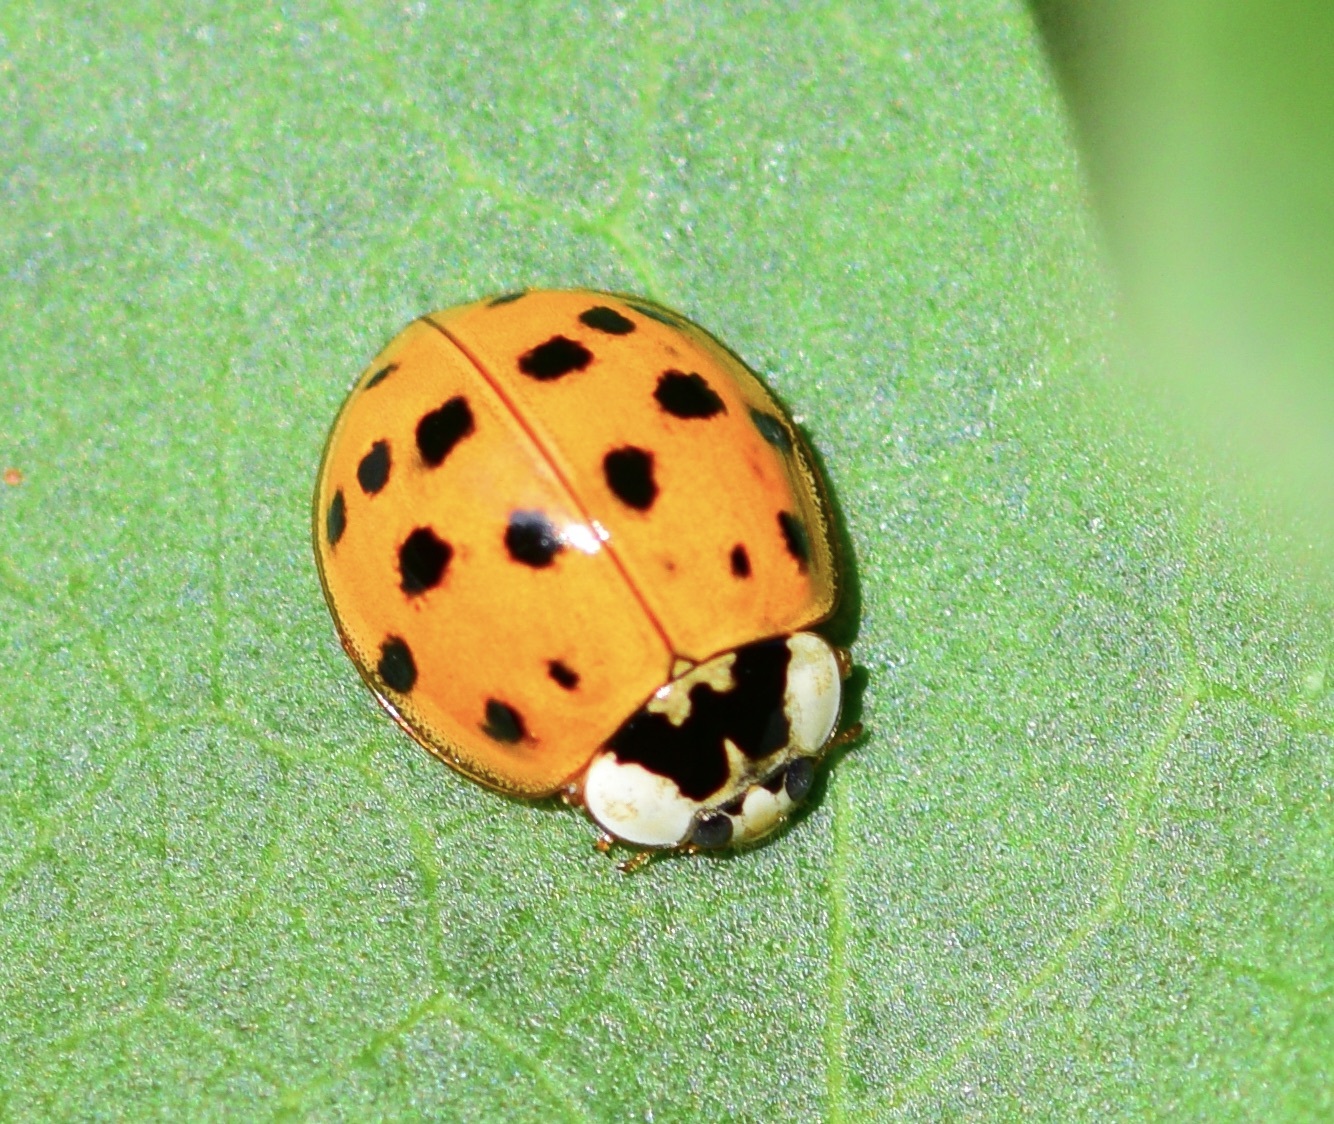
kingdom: Animalia
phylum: Arthropoda
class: Insecta
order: Coleoptera
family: Coccinellidae
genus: Harmonia
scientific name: Harmonia axyridis
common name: Harlequin ladybird
